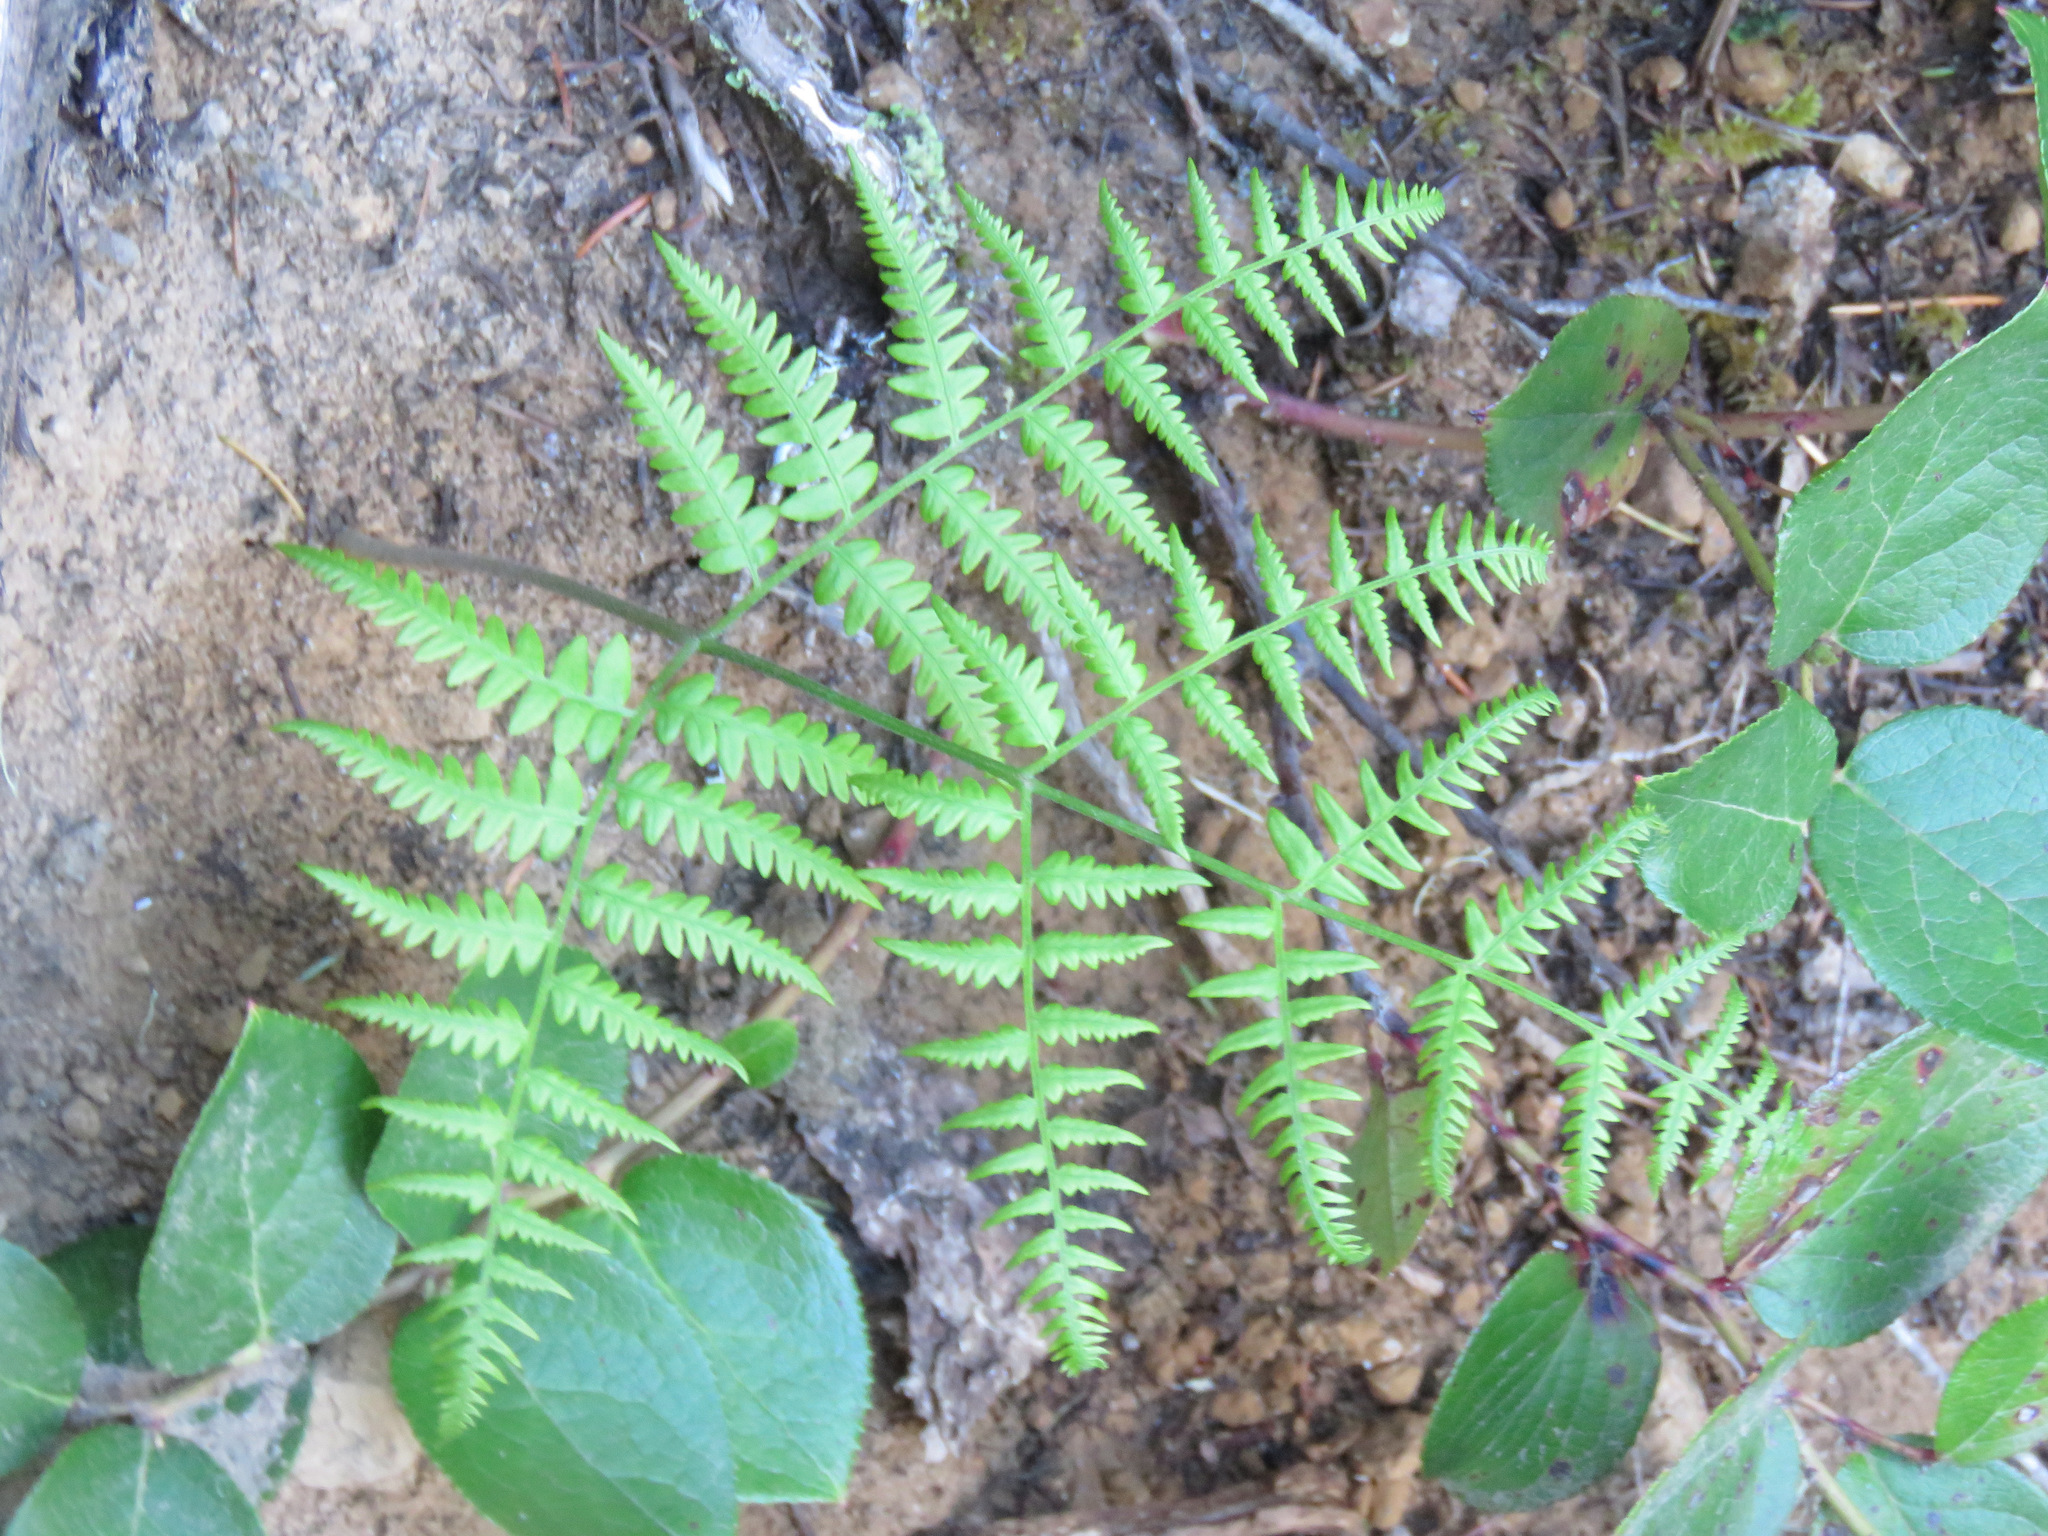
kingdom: Plantae
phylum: Tracheophyta
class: Polypodiopsida
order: Polypodiales
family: Dennstaedtiaceae
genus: Pteridium
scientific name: Pteridium aquilinum
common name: Bracken
